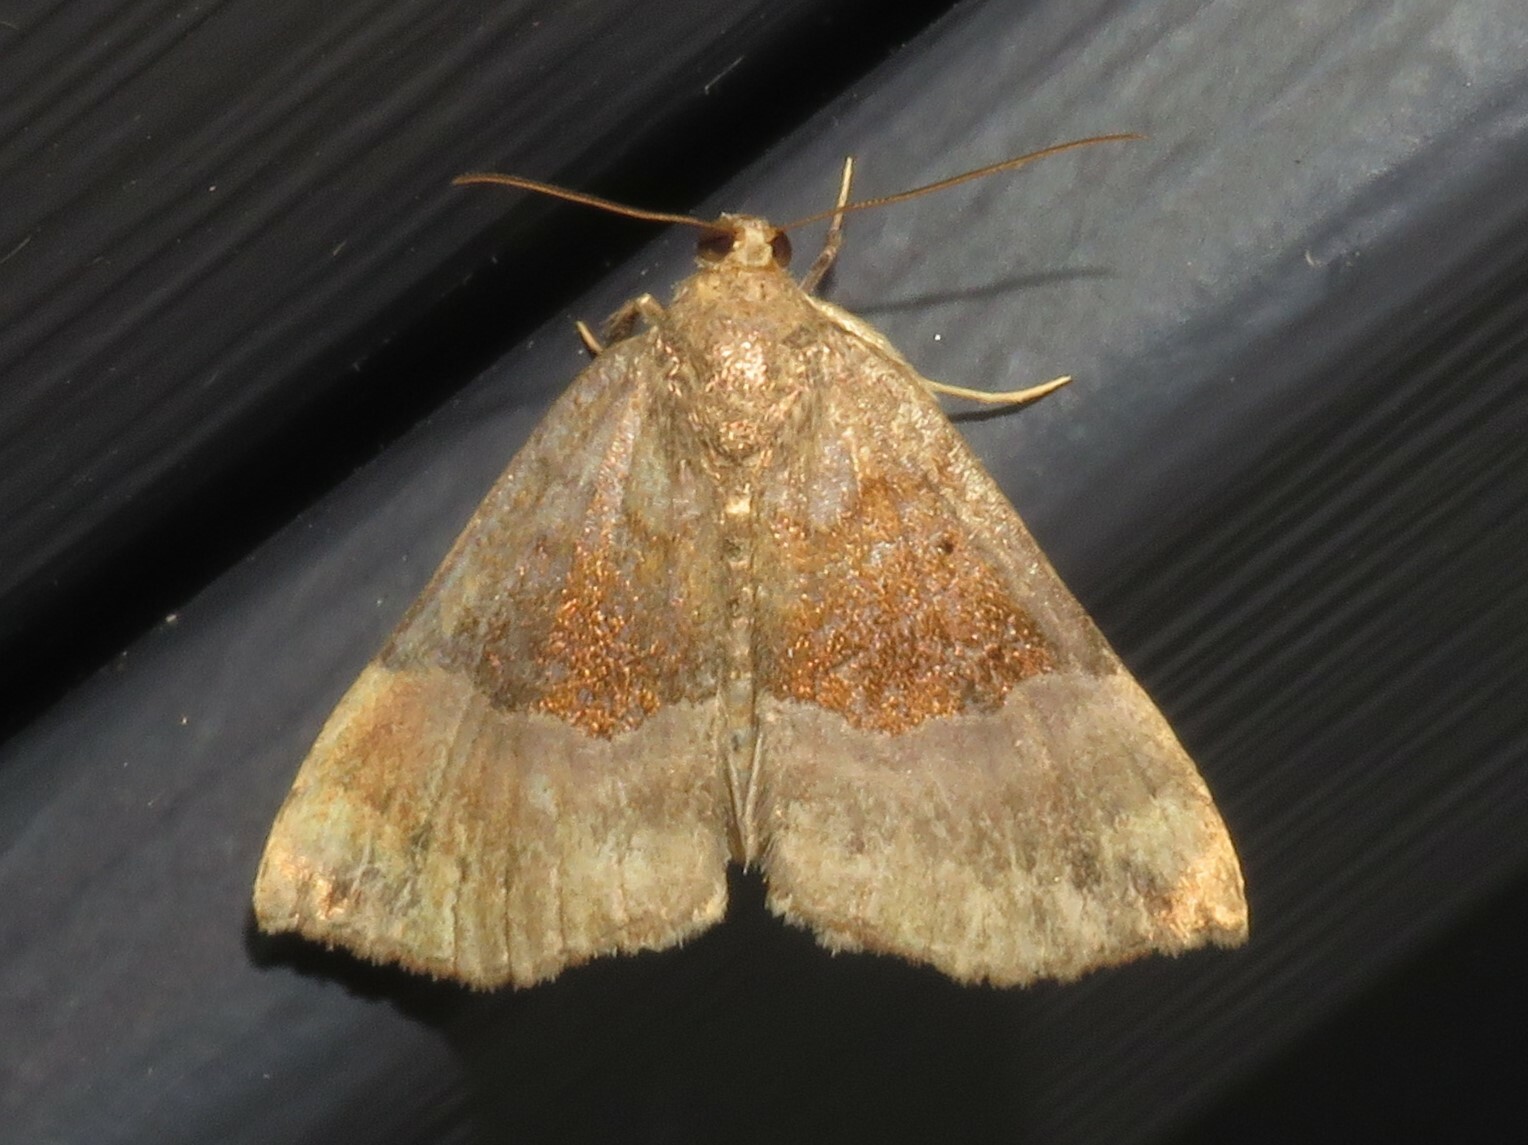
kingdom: Animalia
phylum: Arthropoda
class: Insecta
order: Lepidoptera
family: Erebidae
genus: Hypena
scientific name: Hypena madefactalis
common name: Gray-edged snout
